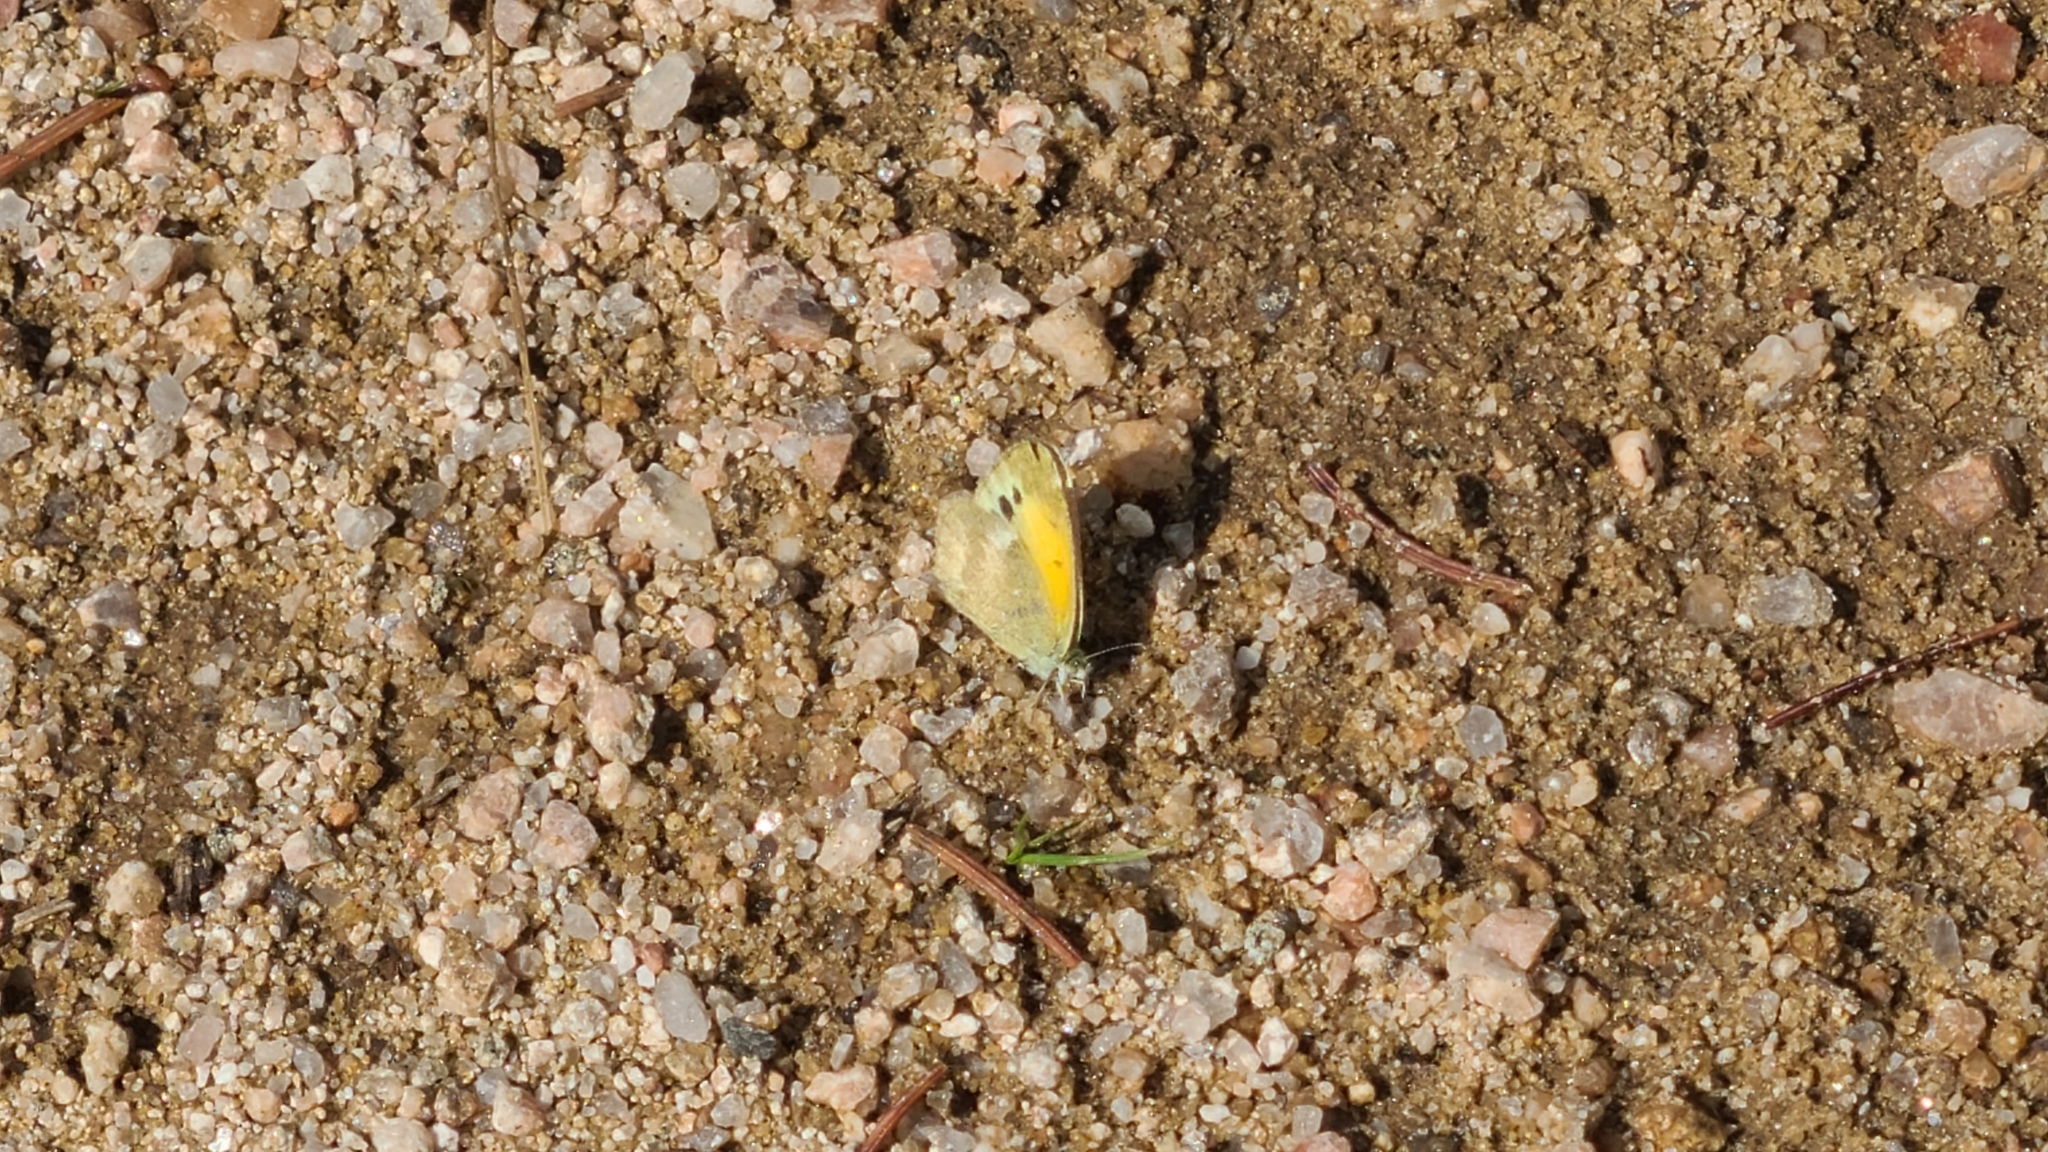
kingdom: Animalia
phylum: Arthropoda
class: Insecta
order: Lepidoptera
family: Pieridae
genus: Nathalis
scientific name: Nathalis iole
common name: Dainty sulphur
